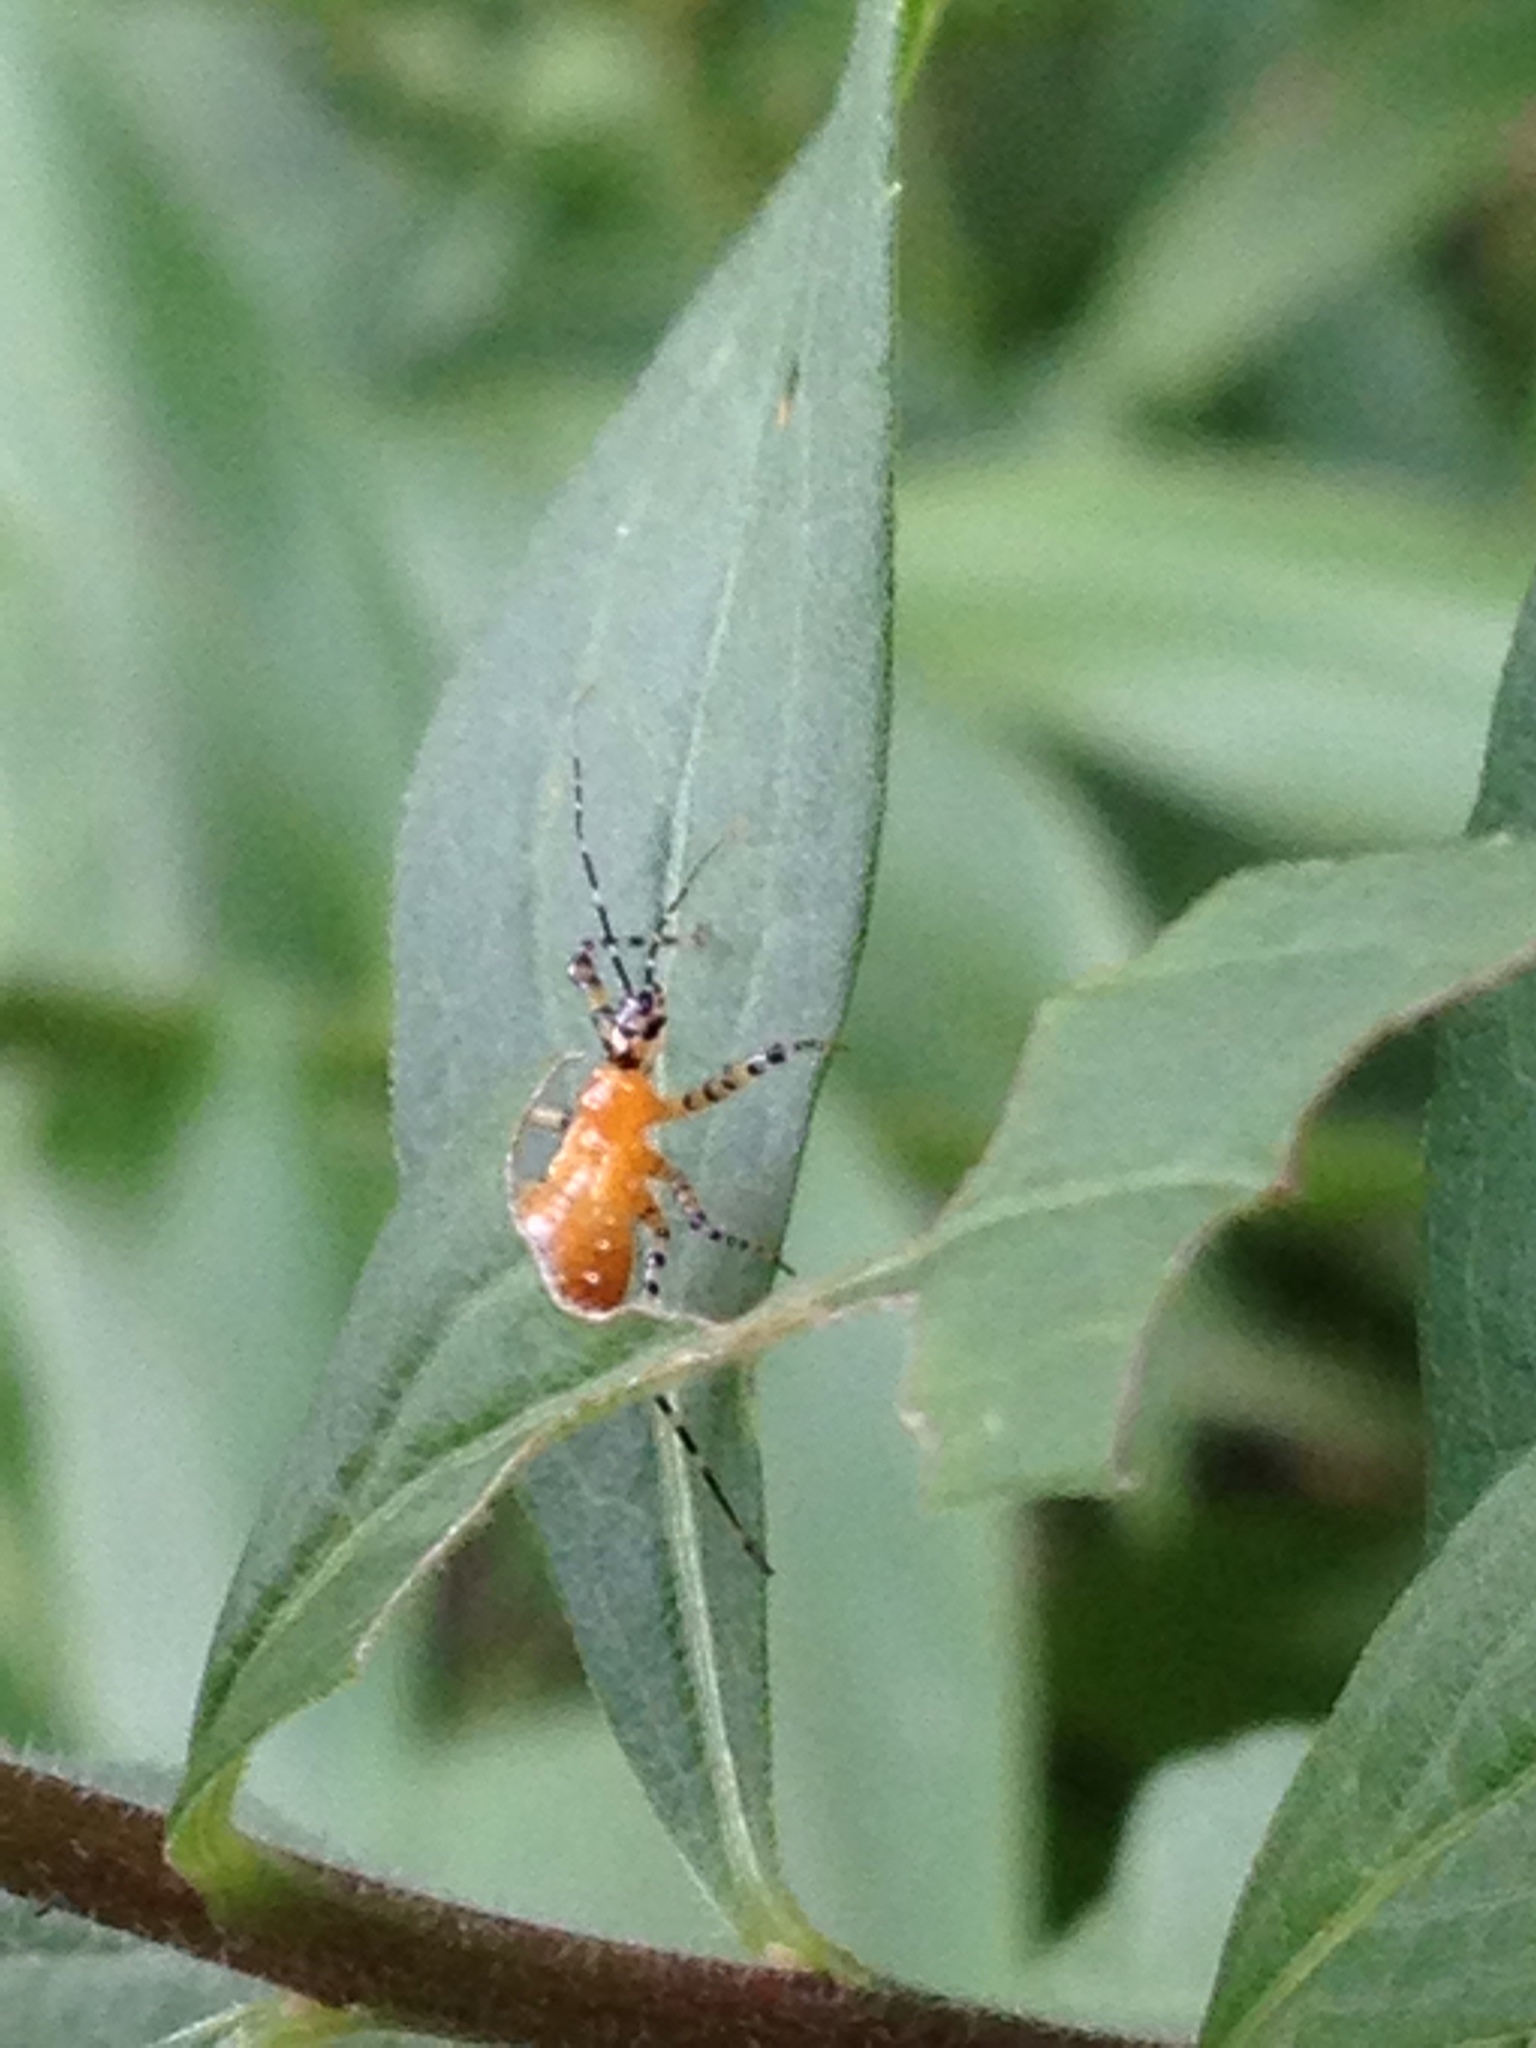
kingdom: Animalia
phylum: Arthropoda
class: Insecta
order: Hemiptera
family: Reduviidae
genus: Pselliopus
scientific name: Pselliopus barberi
